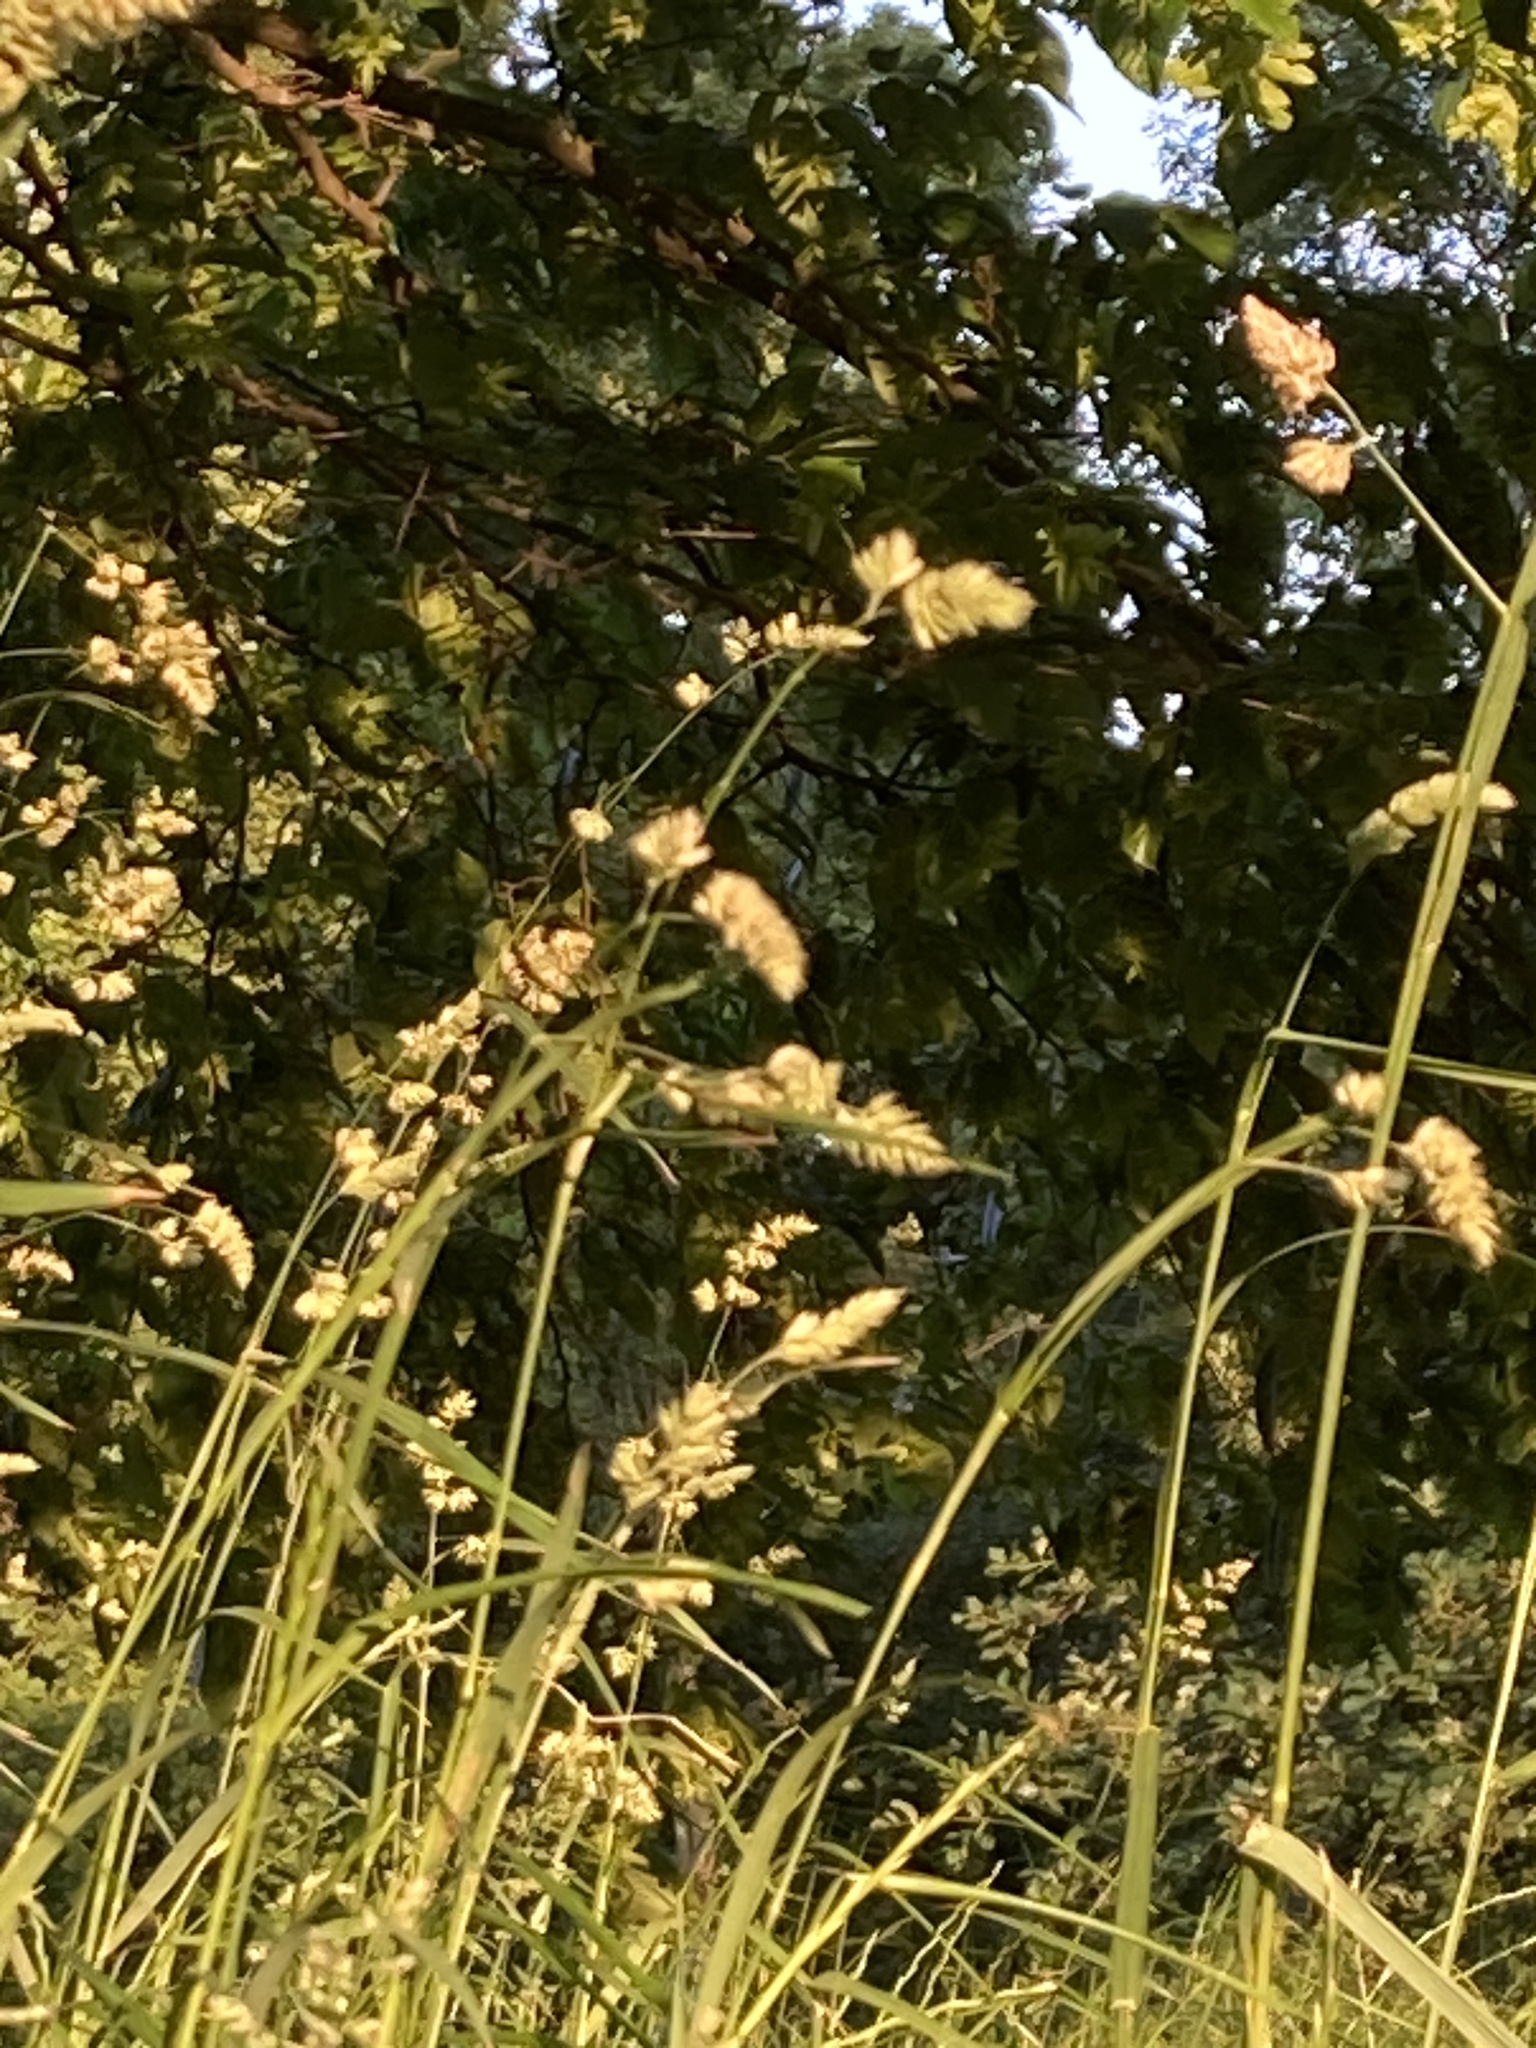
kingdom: Plantae
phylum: Tracheophyta
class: Liliopsida
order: Poales
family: Poaceae
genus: Dactylis
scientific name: Dactylis glomerata
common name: Orchardgrass
